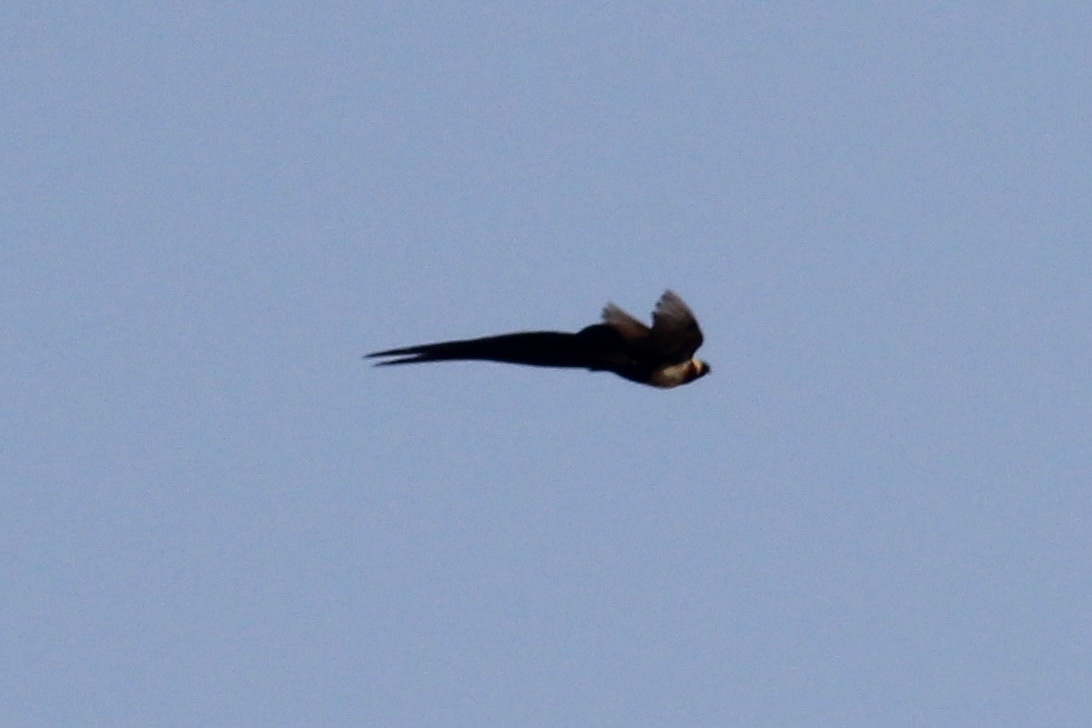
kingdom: Animalia
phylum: Chordata
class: Aves
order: Passeriformes
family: Viduidae
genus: Vidua
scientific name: Vidua paradisaea
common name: Long-tailed paradise whydah
